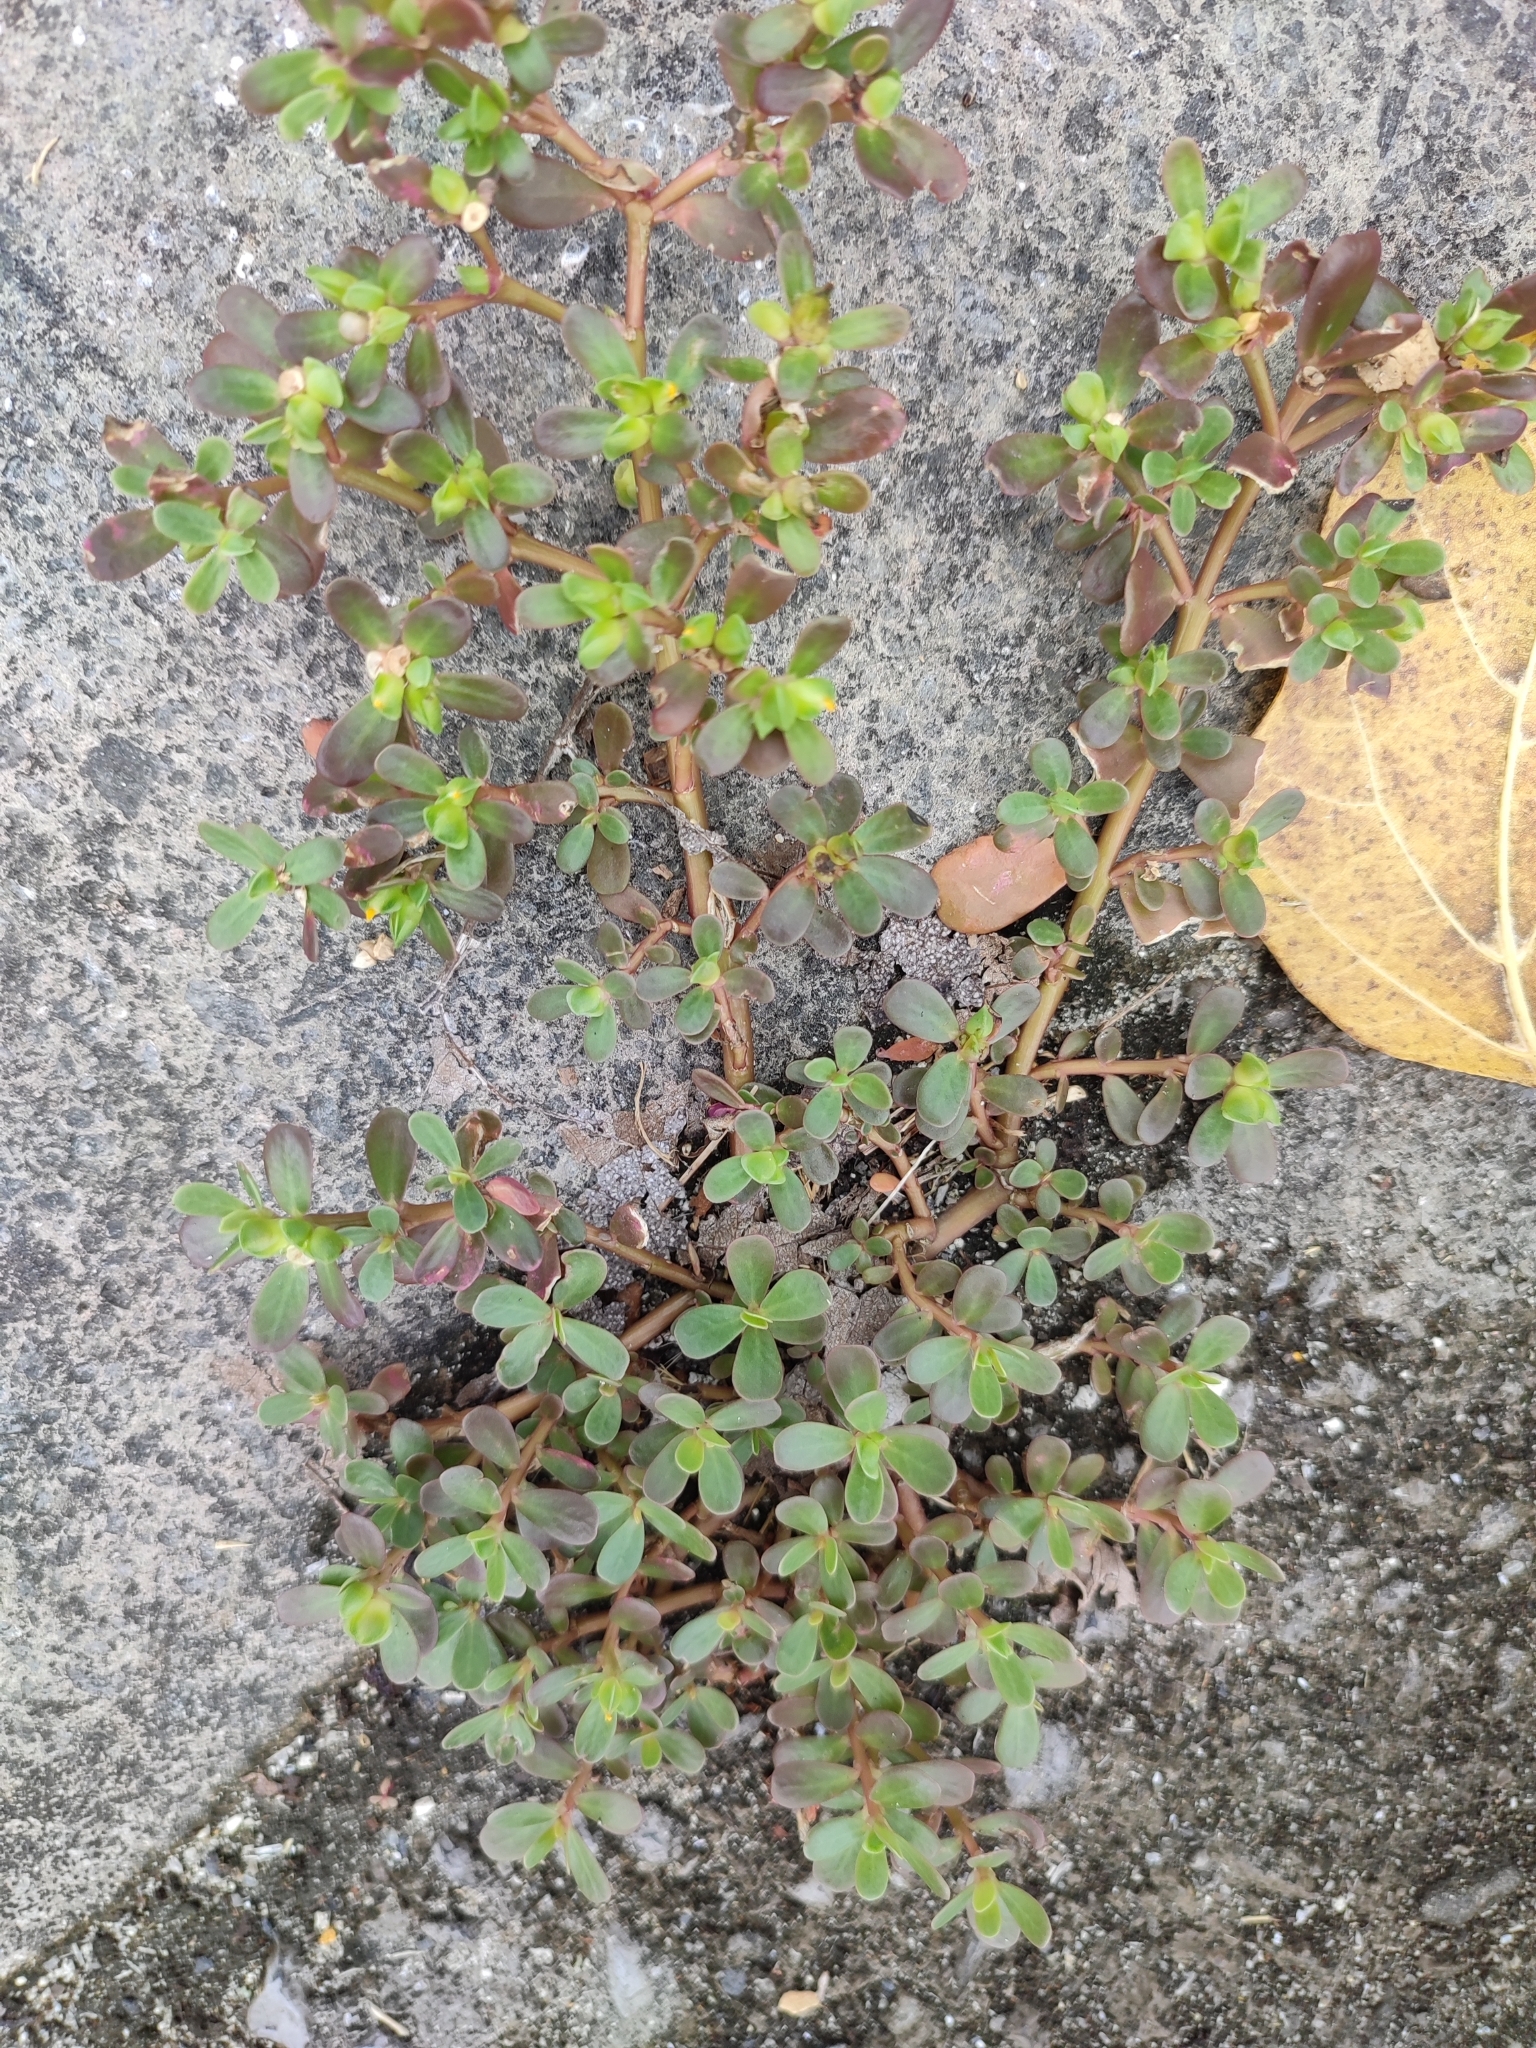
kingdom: Plantae
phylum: Tracheophyta
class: Magnoliopsida
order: Caryophyllales
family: Portulacaceae
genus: Portulaca
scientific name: Portulaca oleracea
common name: Common purslane
